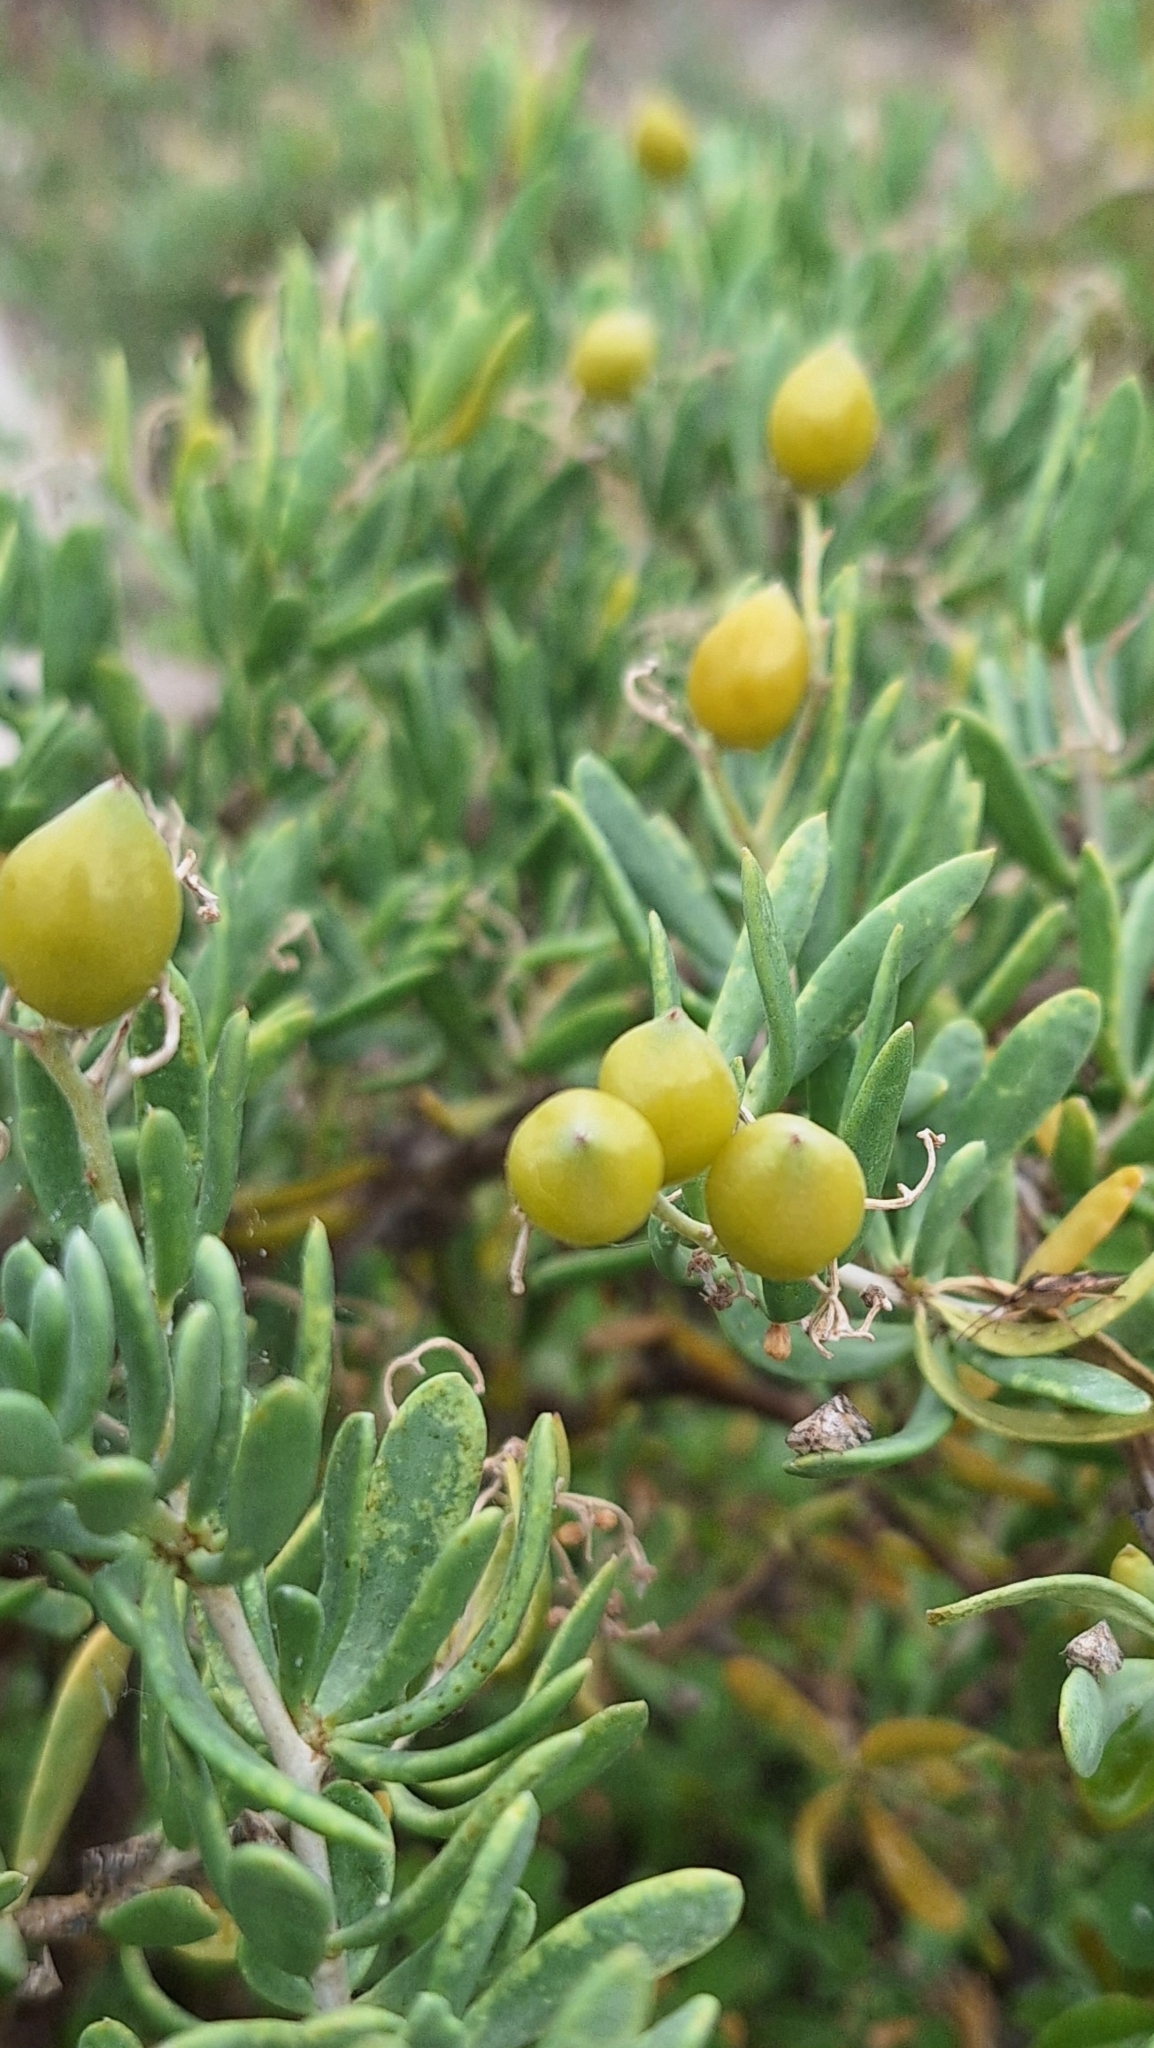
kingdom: Plantae
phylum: Tracheophyta
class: Magnoliopsida
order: Sapindales
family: Nitrariaceae
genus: Nitraria
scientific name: Nitraria billardierei
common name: Dillonbush
